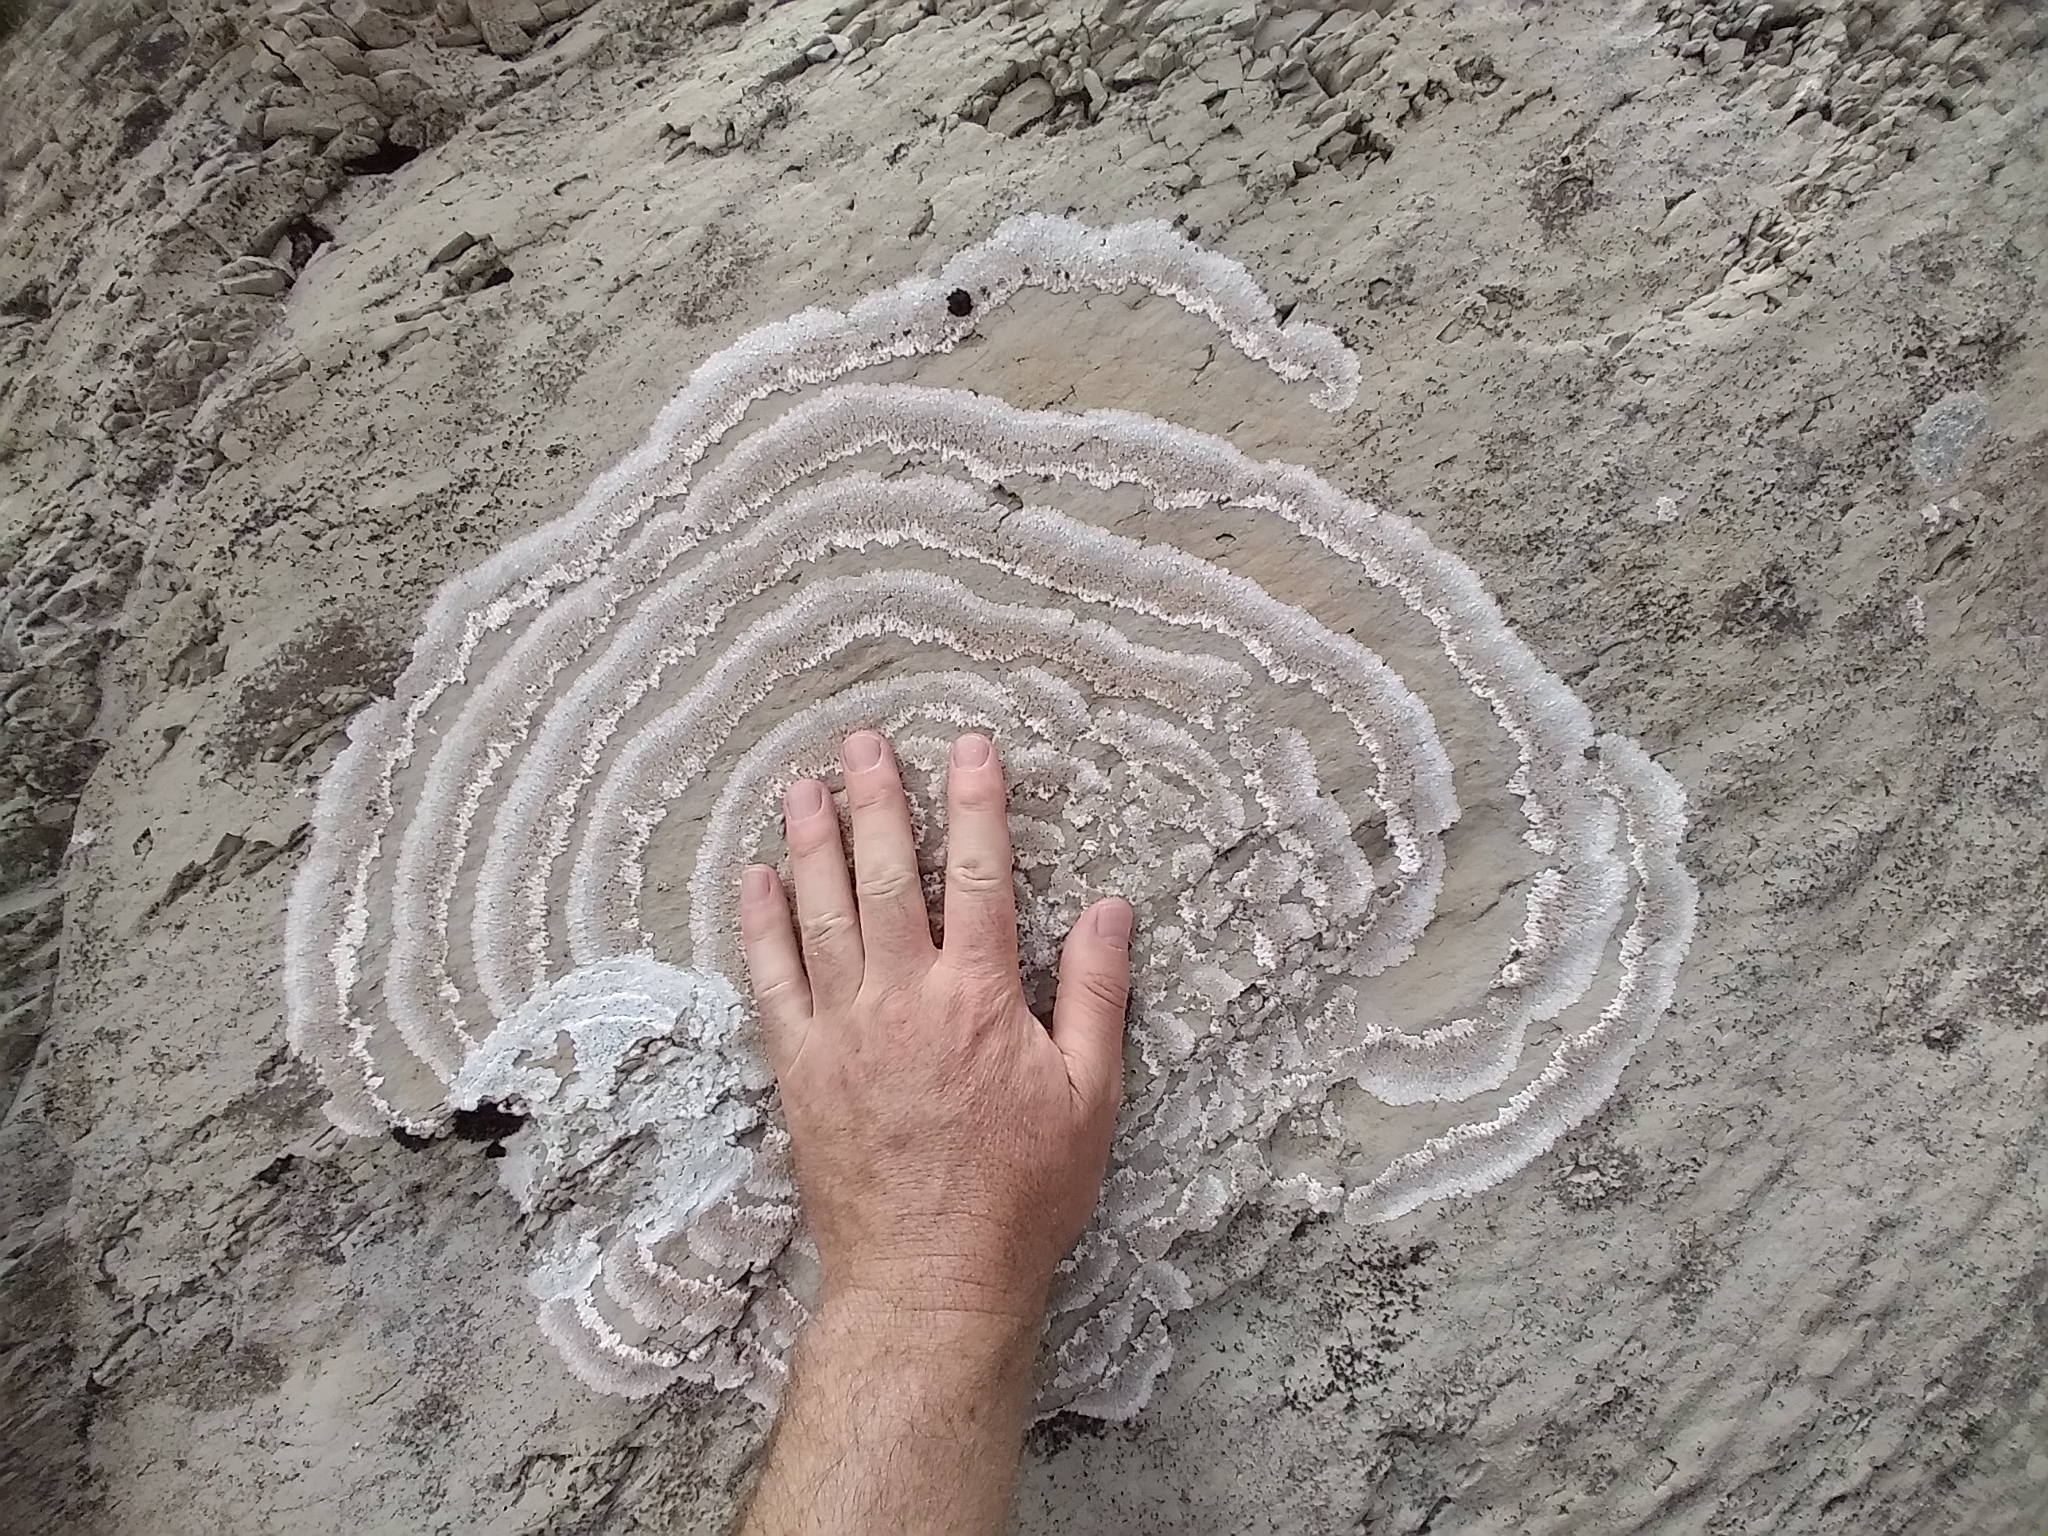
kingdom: Fungi
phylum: Ascomycota
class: Lecanoromycetes
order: Baeomycetales
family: Trapeliaceae
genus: Placopsis
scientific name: Placopsis centrifuga
